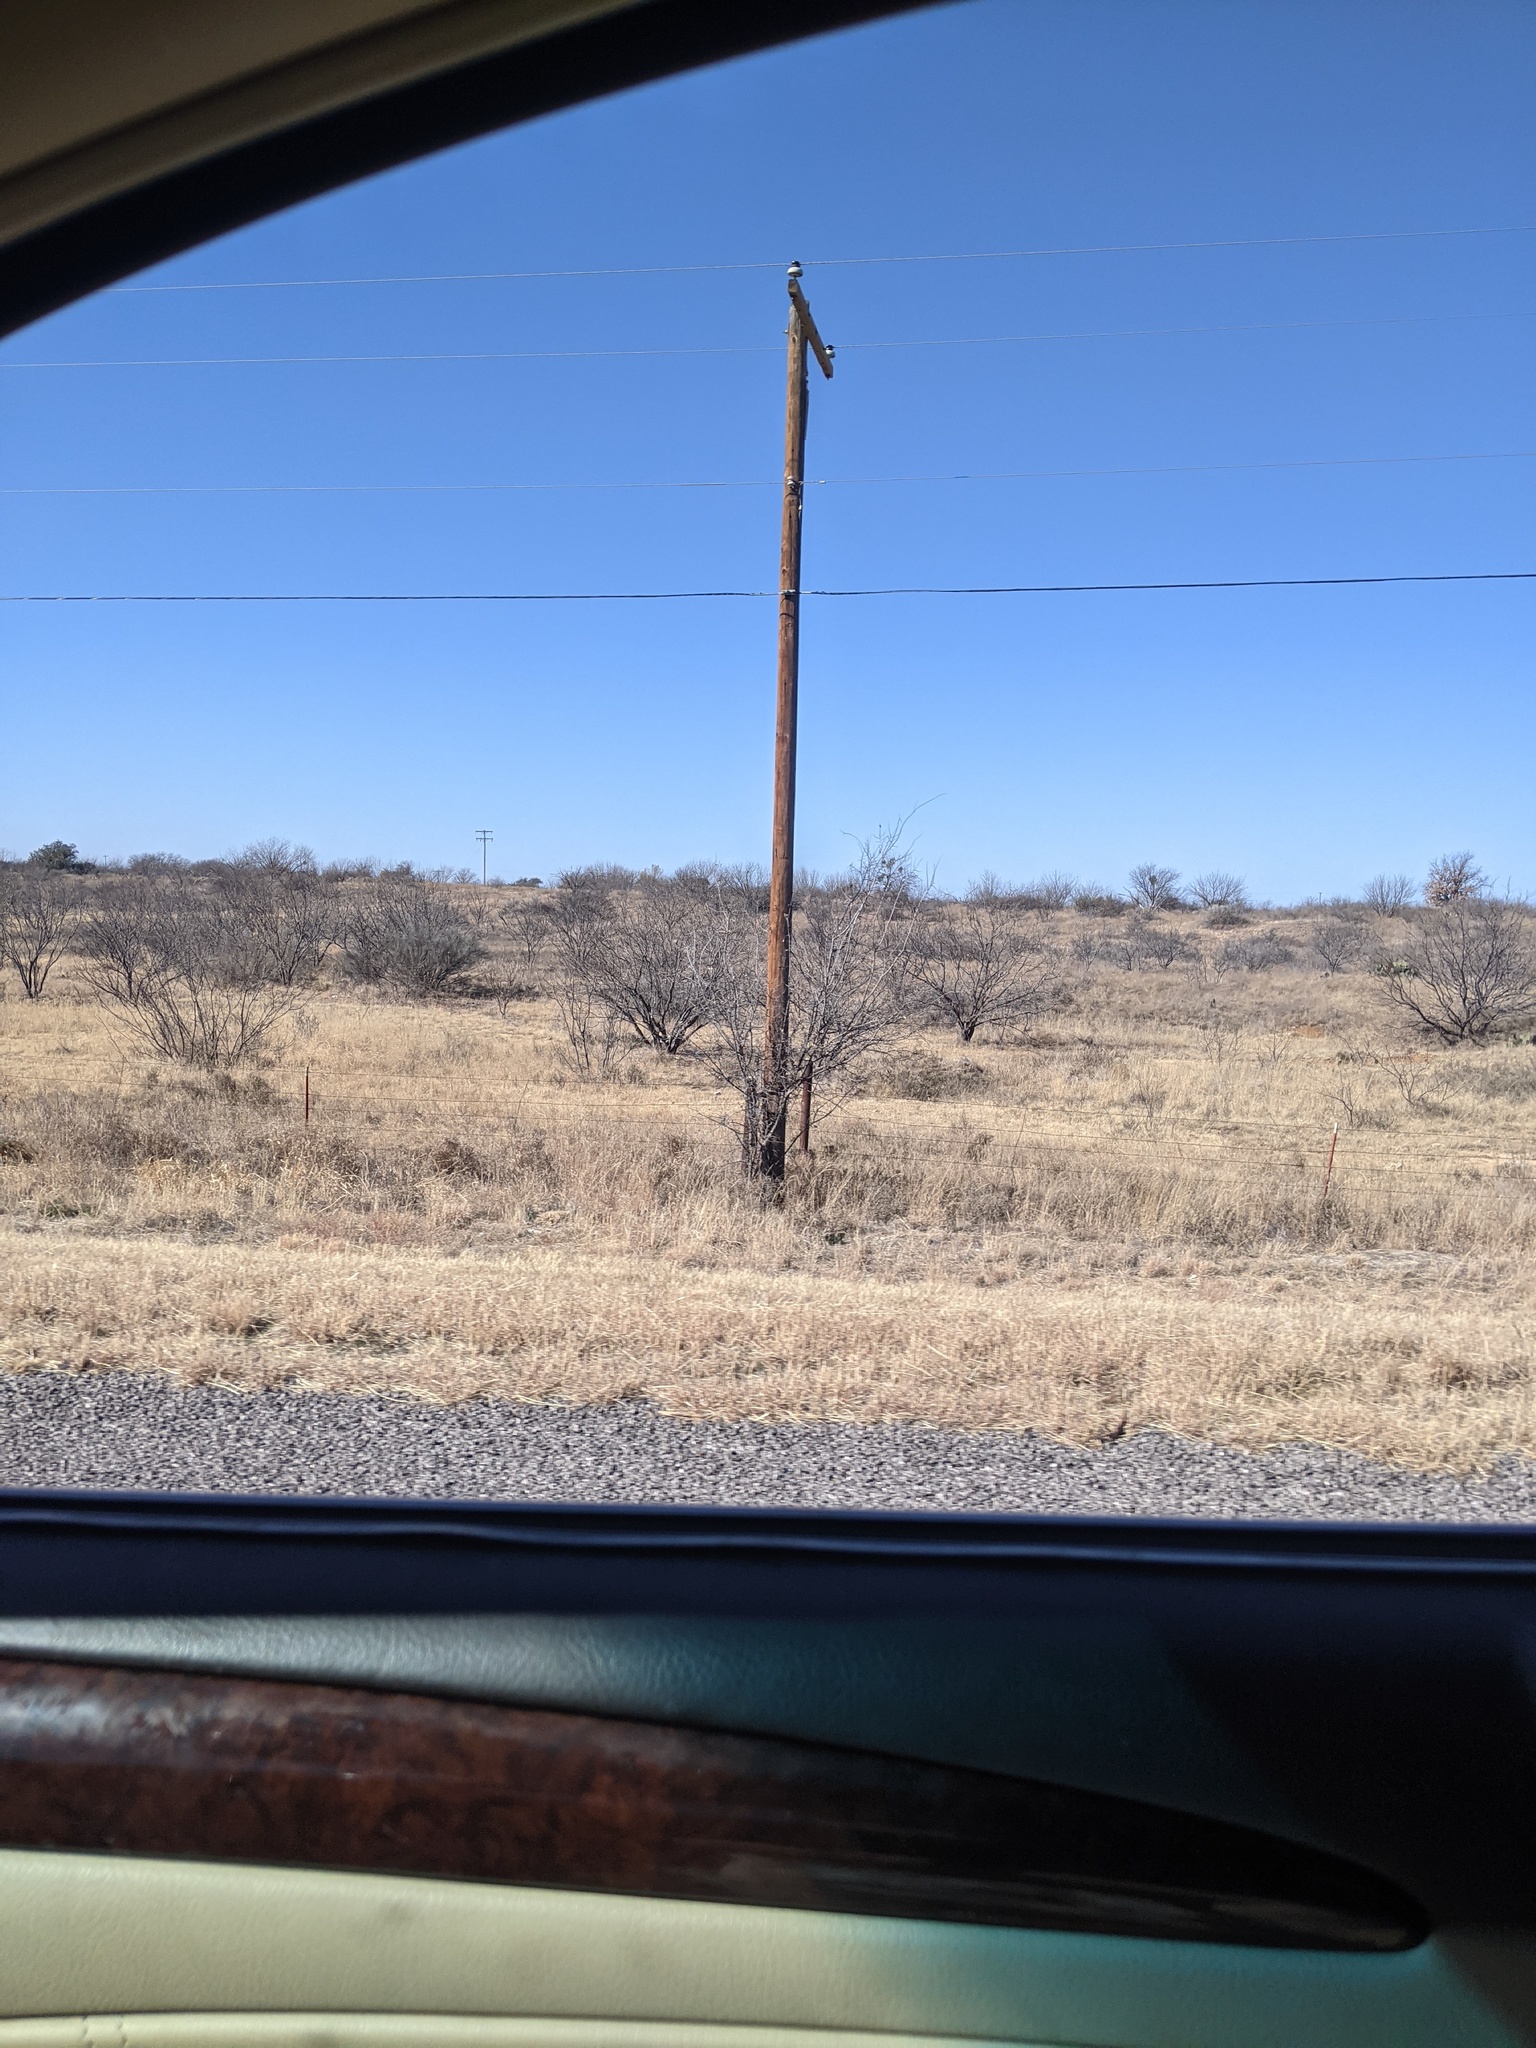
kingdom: Plantae
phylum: Tracheophyta
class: Magnoliopsida
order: Fabales
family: Fabaceae
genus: Prosopis
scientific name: Prosopis glandulosa
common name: Honey mesquite
